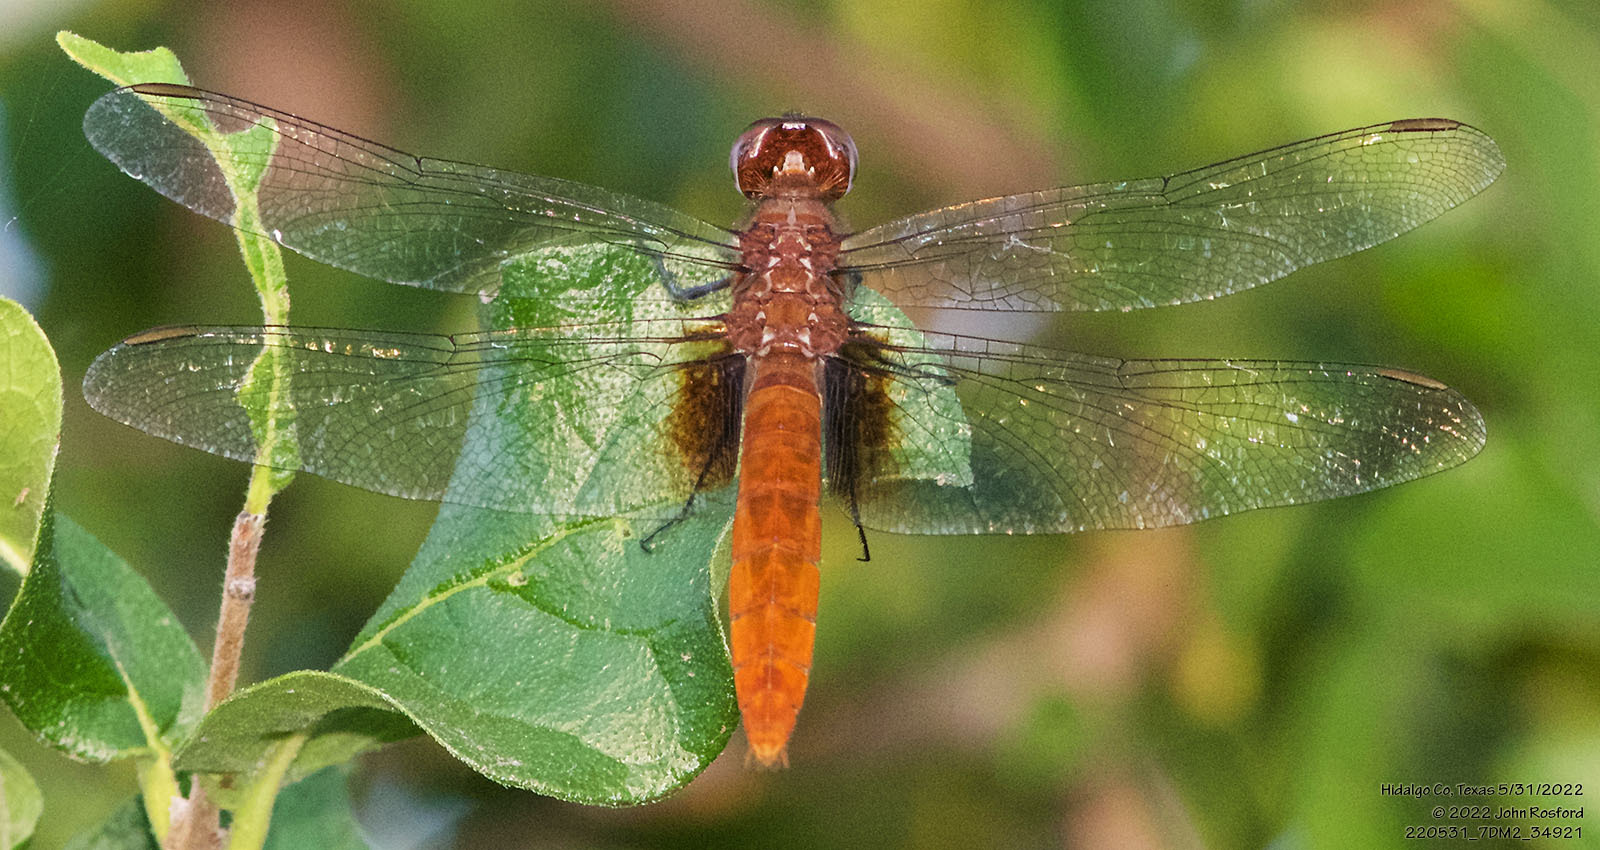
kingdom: Animalia
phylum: Arthropoda
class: Insecta
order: Odonata
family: Libellulidae
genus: Planiplax
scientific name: Planiplax sanguiniventris
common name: Mexican scarlet-tail
